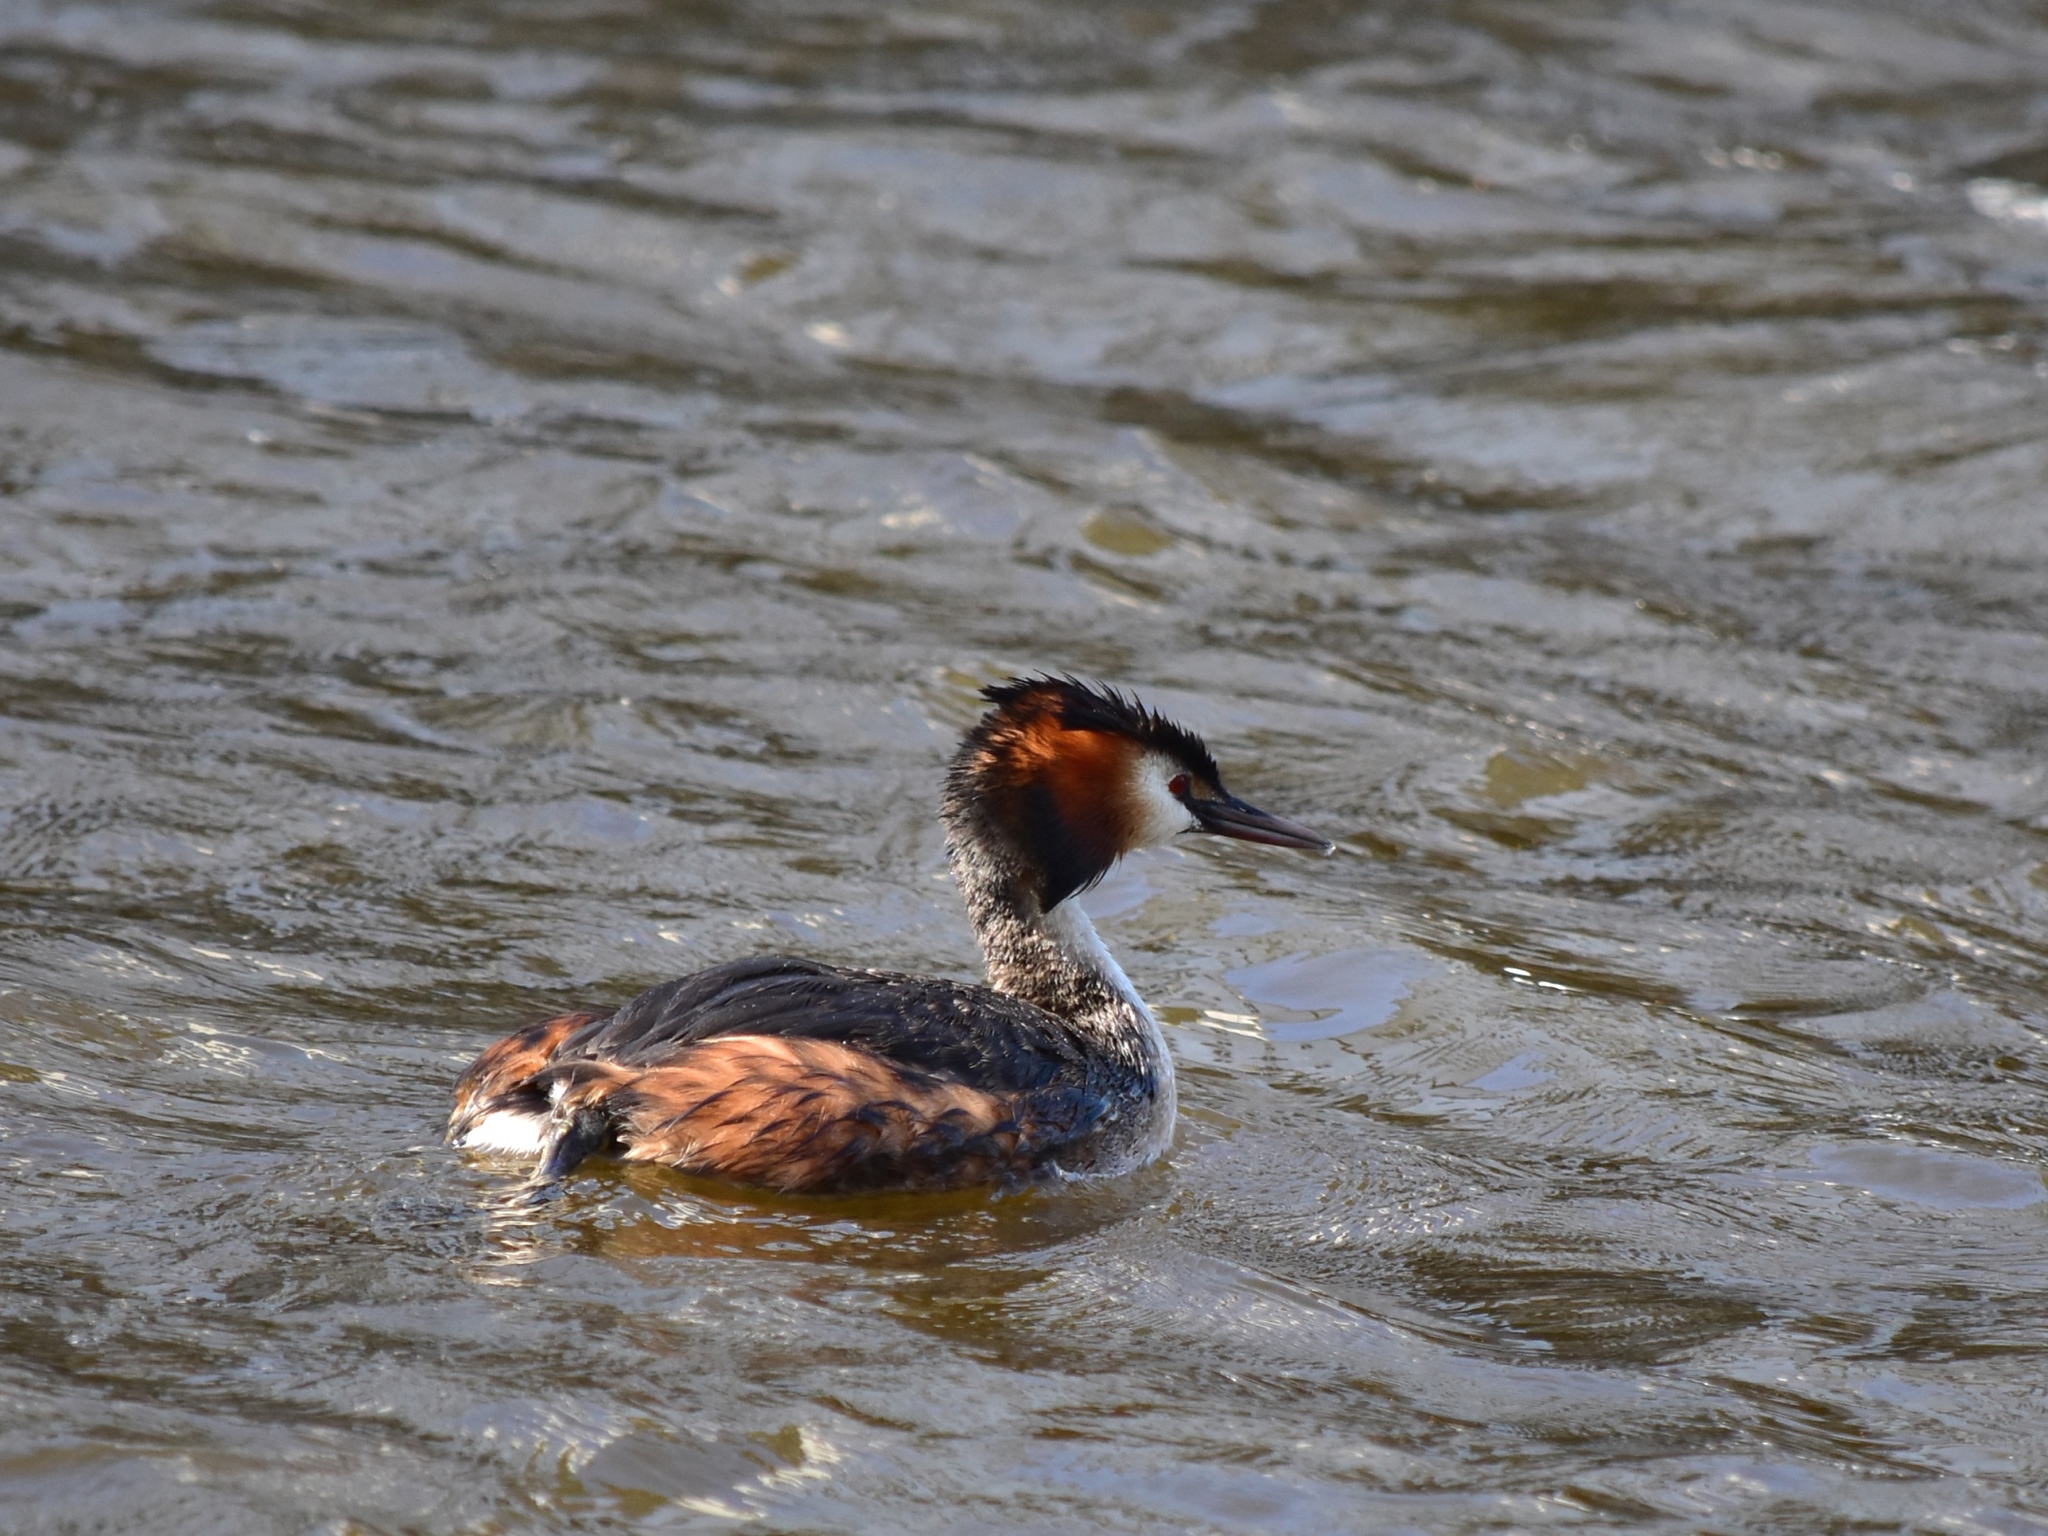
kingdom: Animalia
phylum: Chordata
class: Aves
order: Podicipediformes
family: Podicipedidae
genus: Podiceps
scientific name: Podiceps cristatus
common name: Great crested grebe
